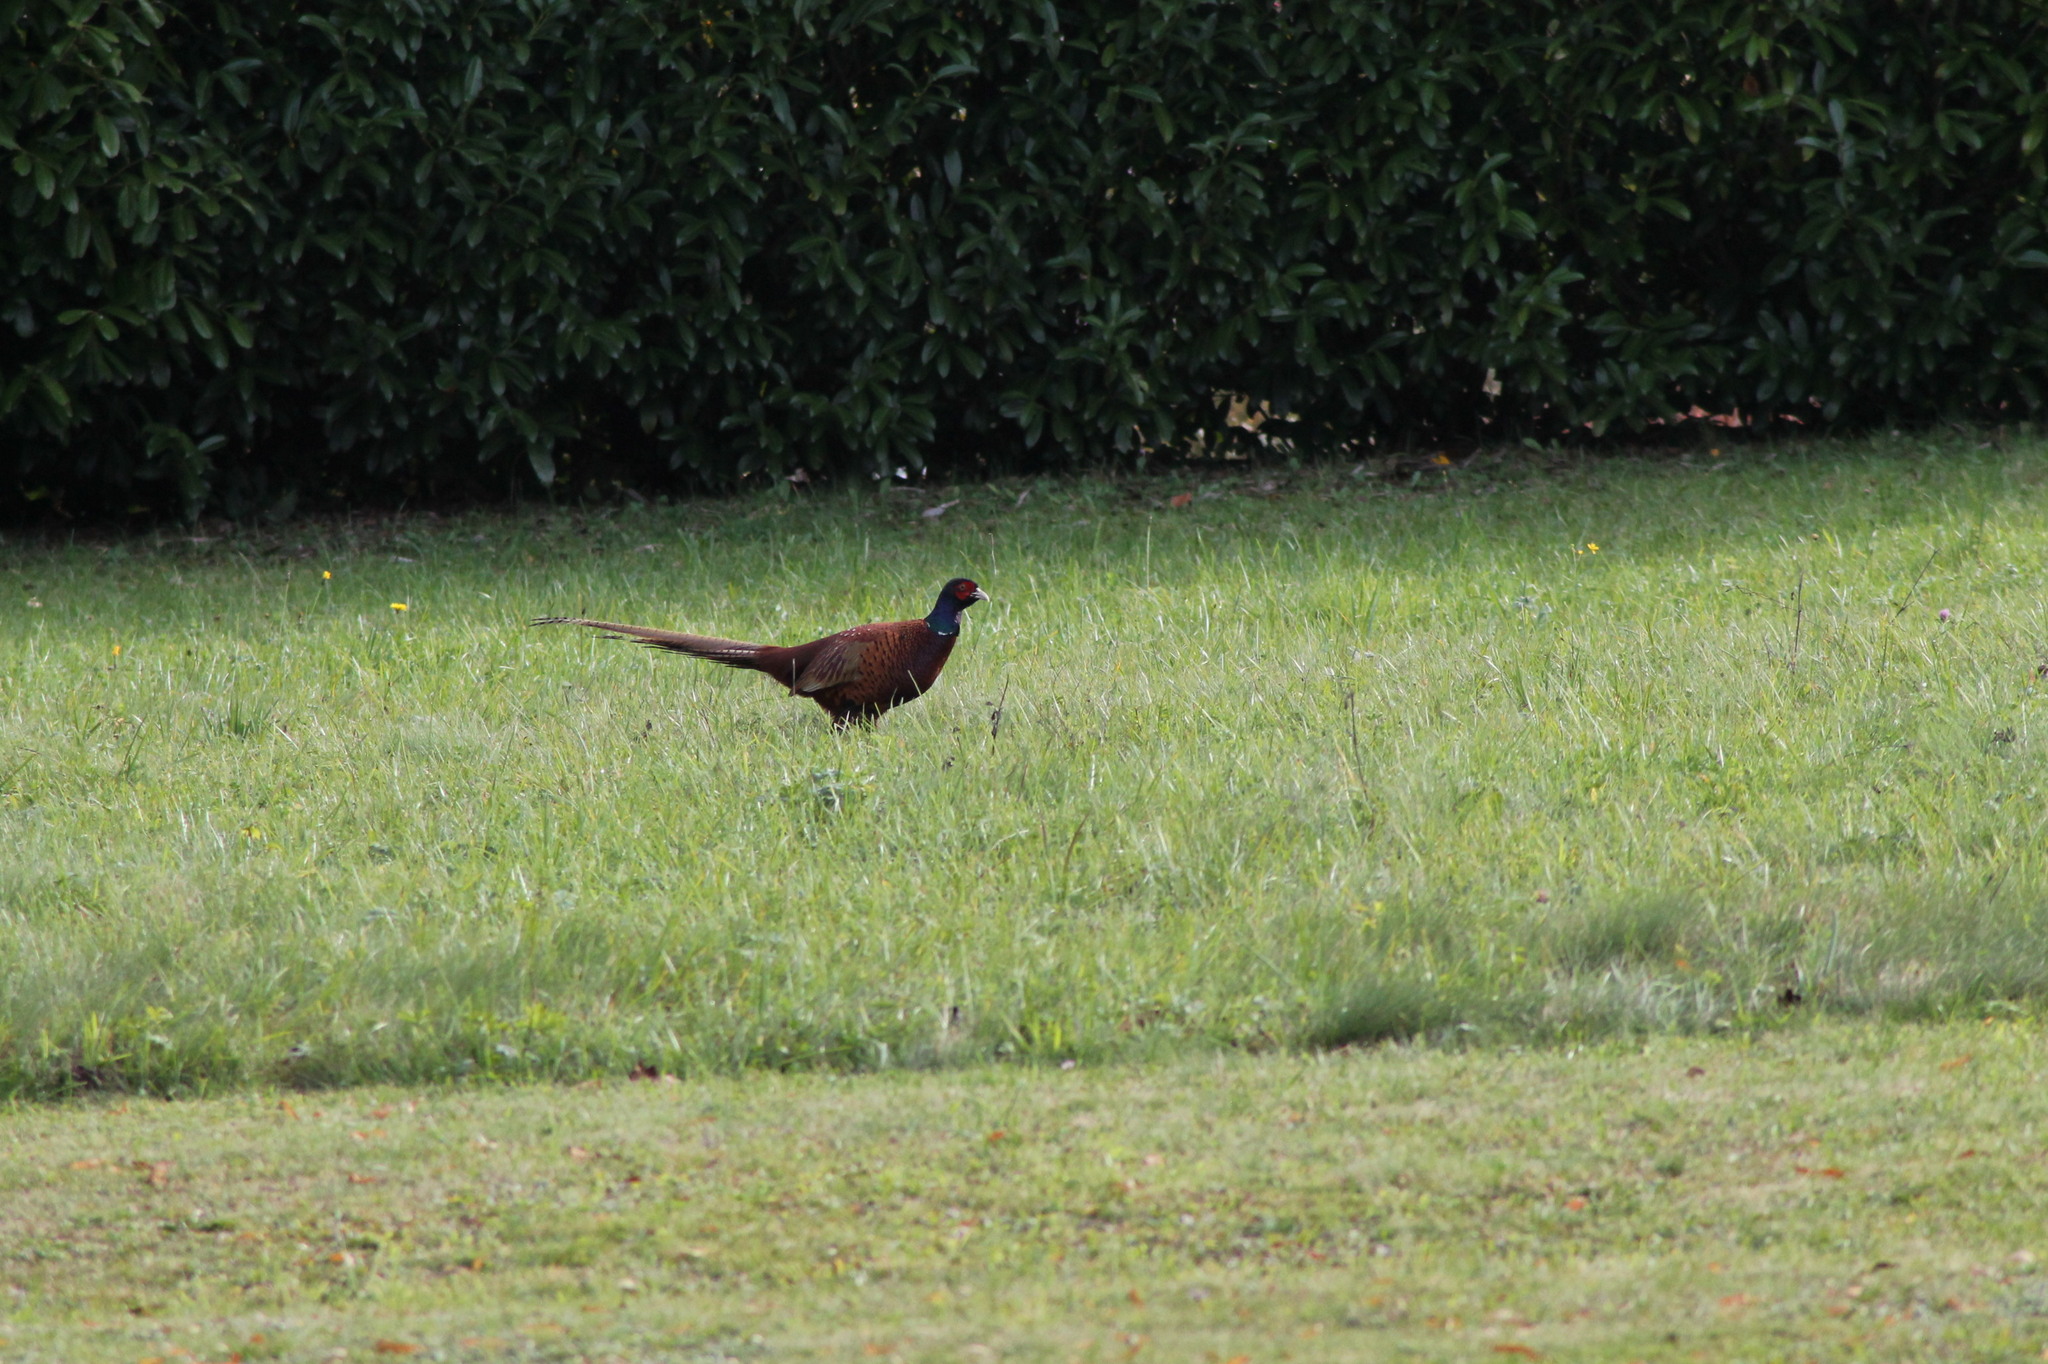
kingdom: Animalia
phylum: Chordata
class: Aves
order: Galliformes
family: Phasianidae
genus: Phasianus
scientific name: Phasianus colchicus
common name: Common pheasant
